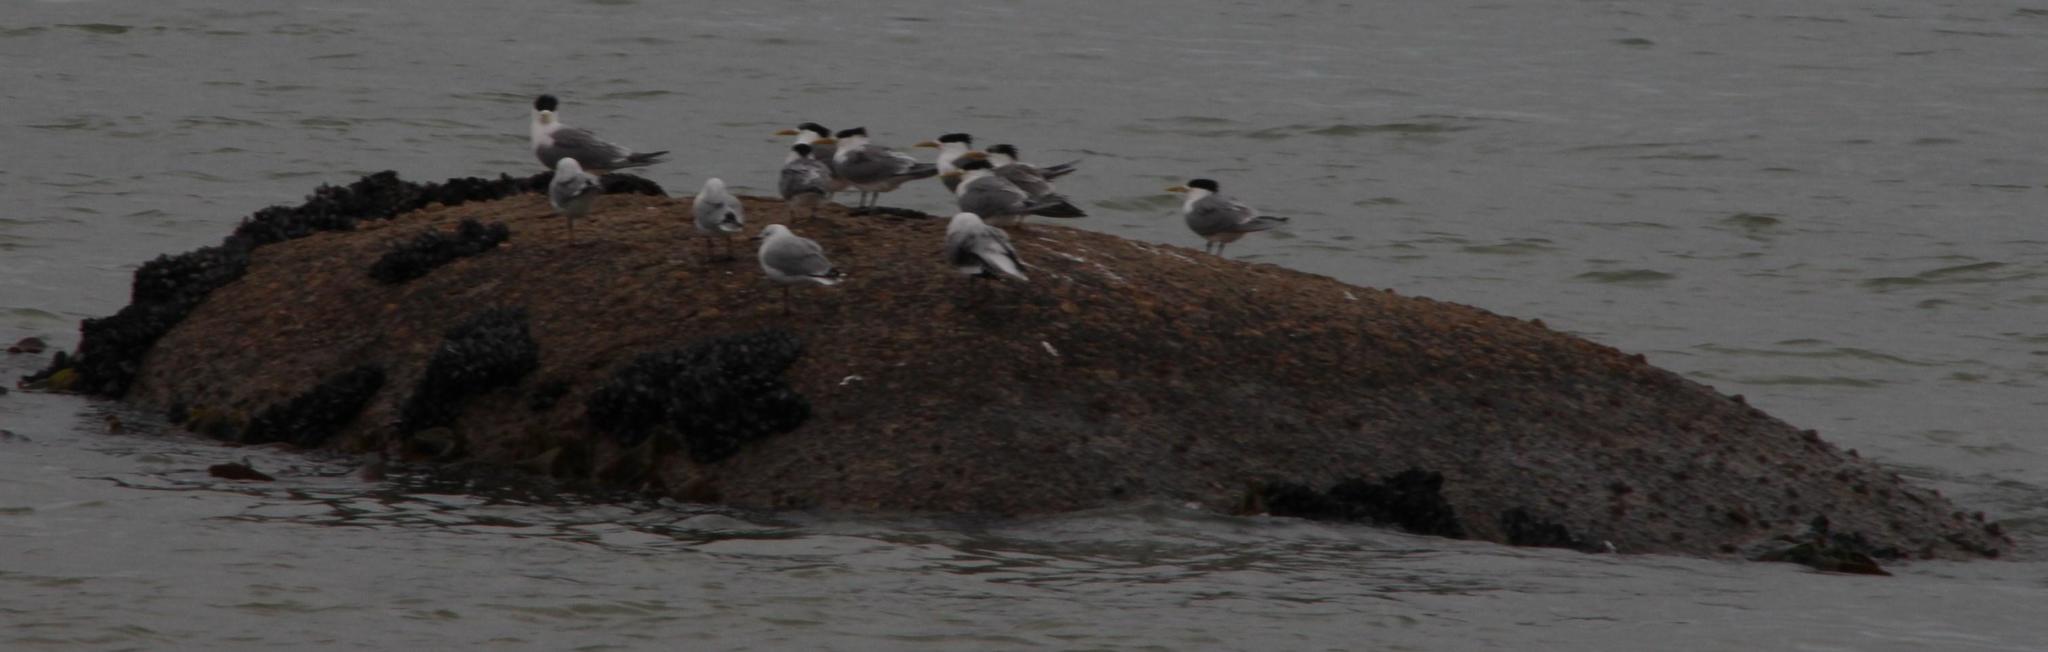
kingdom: Animalia
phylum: Chordata
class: Aves
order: Charadriiformes
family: Laridae
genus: Thalasseus
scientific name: Thalasseus bergii
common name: Greater crested tern
